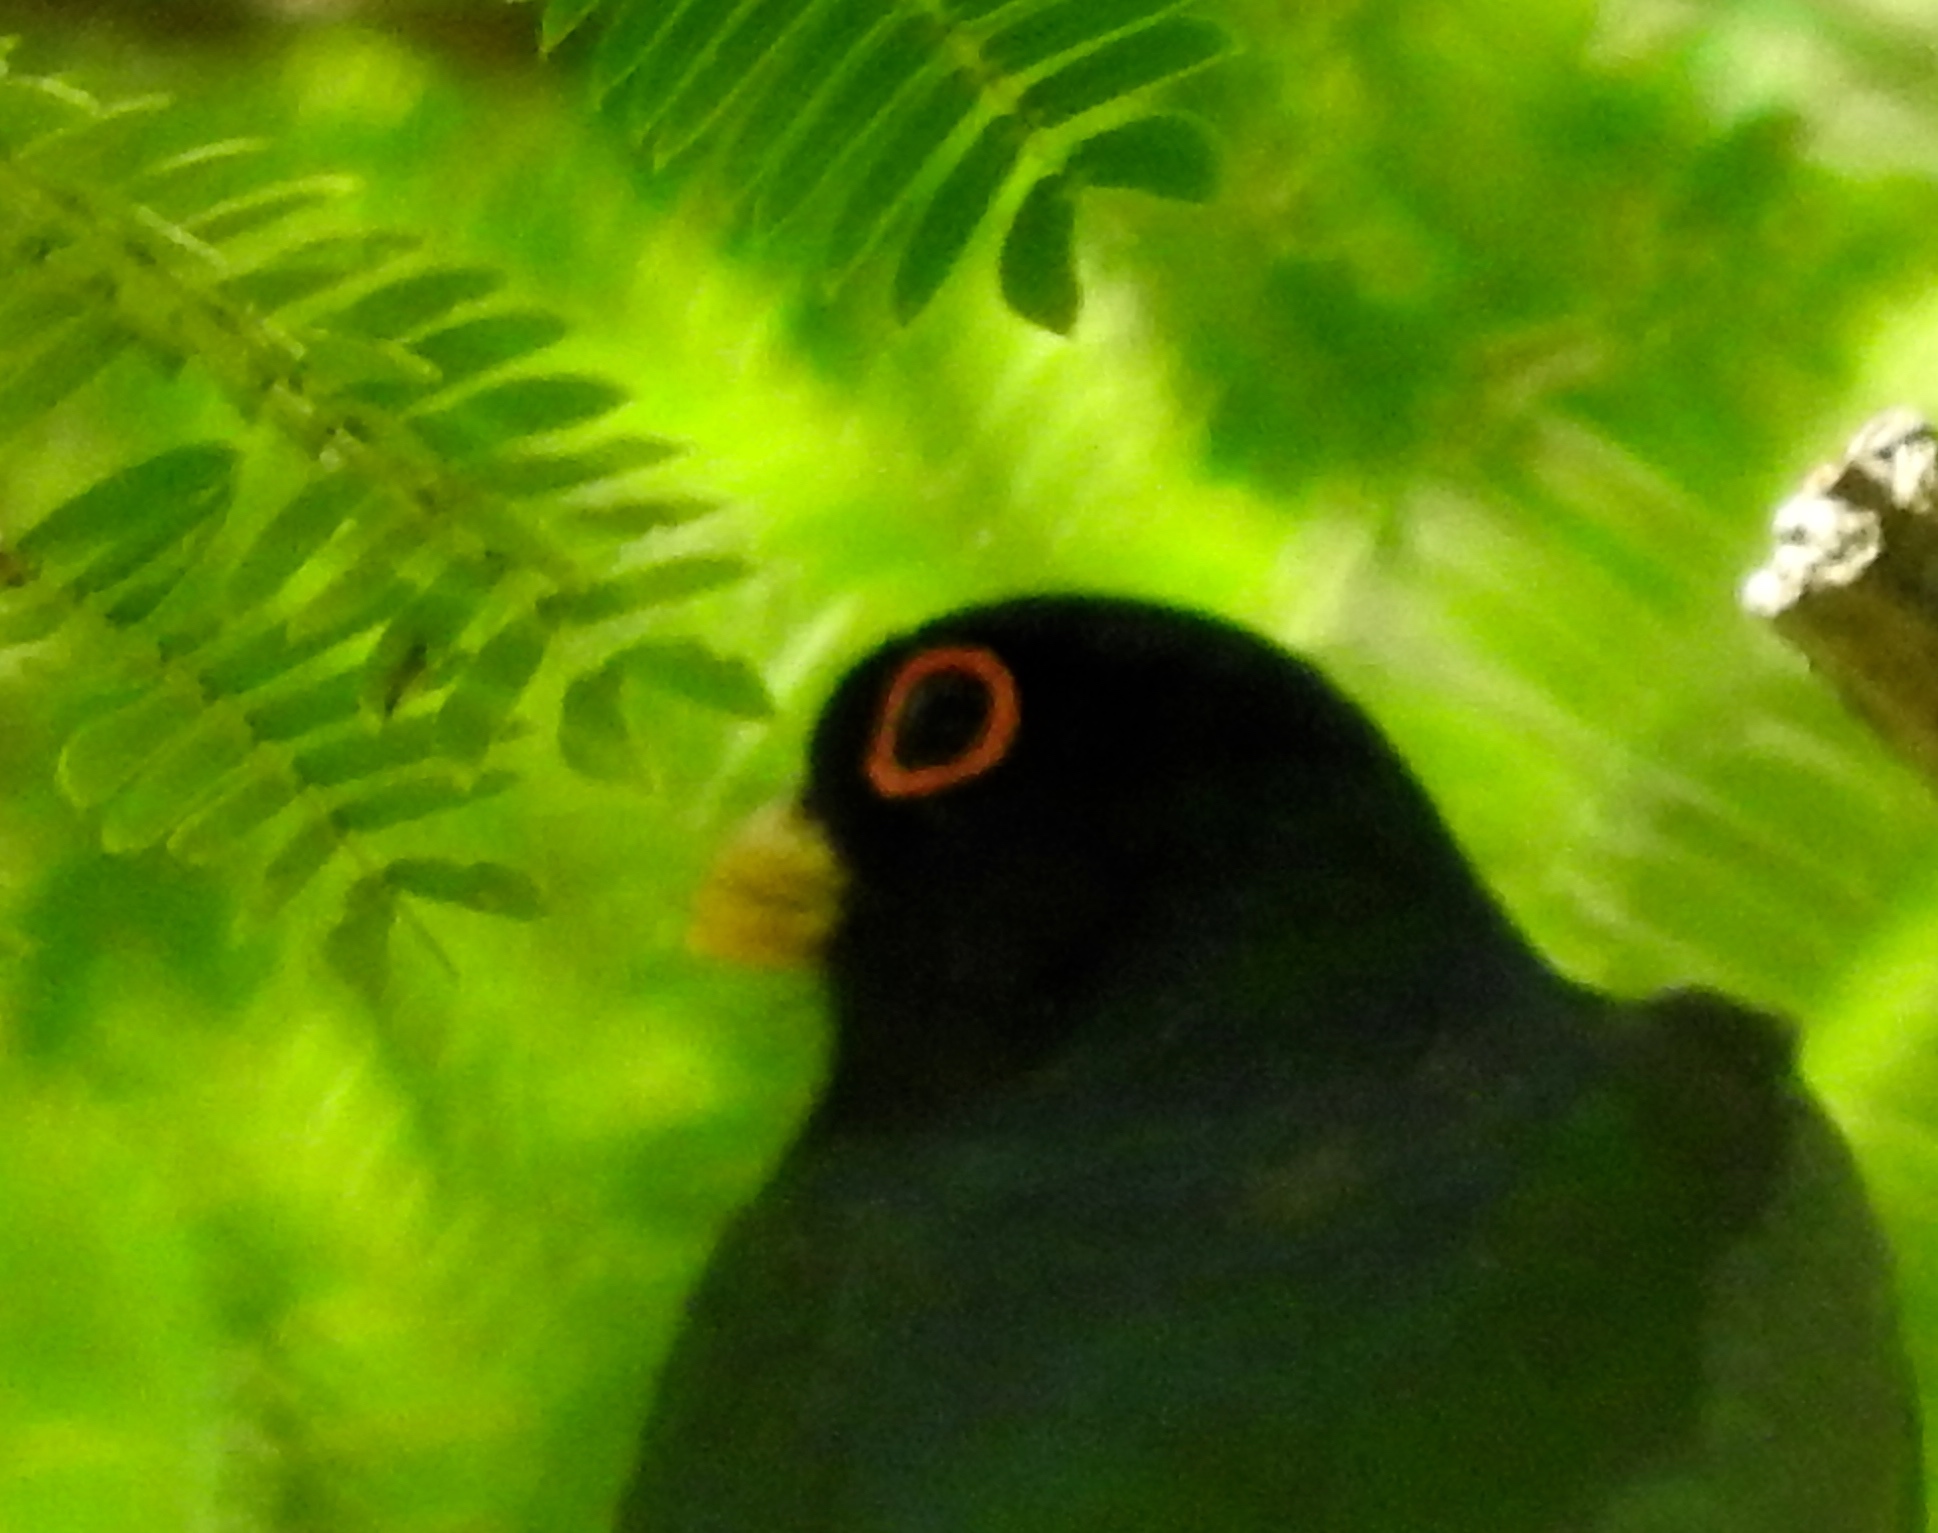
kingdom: Animalia
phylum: Chordata
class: Aves
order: Trogoniformes
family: Trogonidae
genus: Trogon
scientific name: Trogon elegans
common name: Elegant trogon
